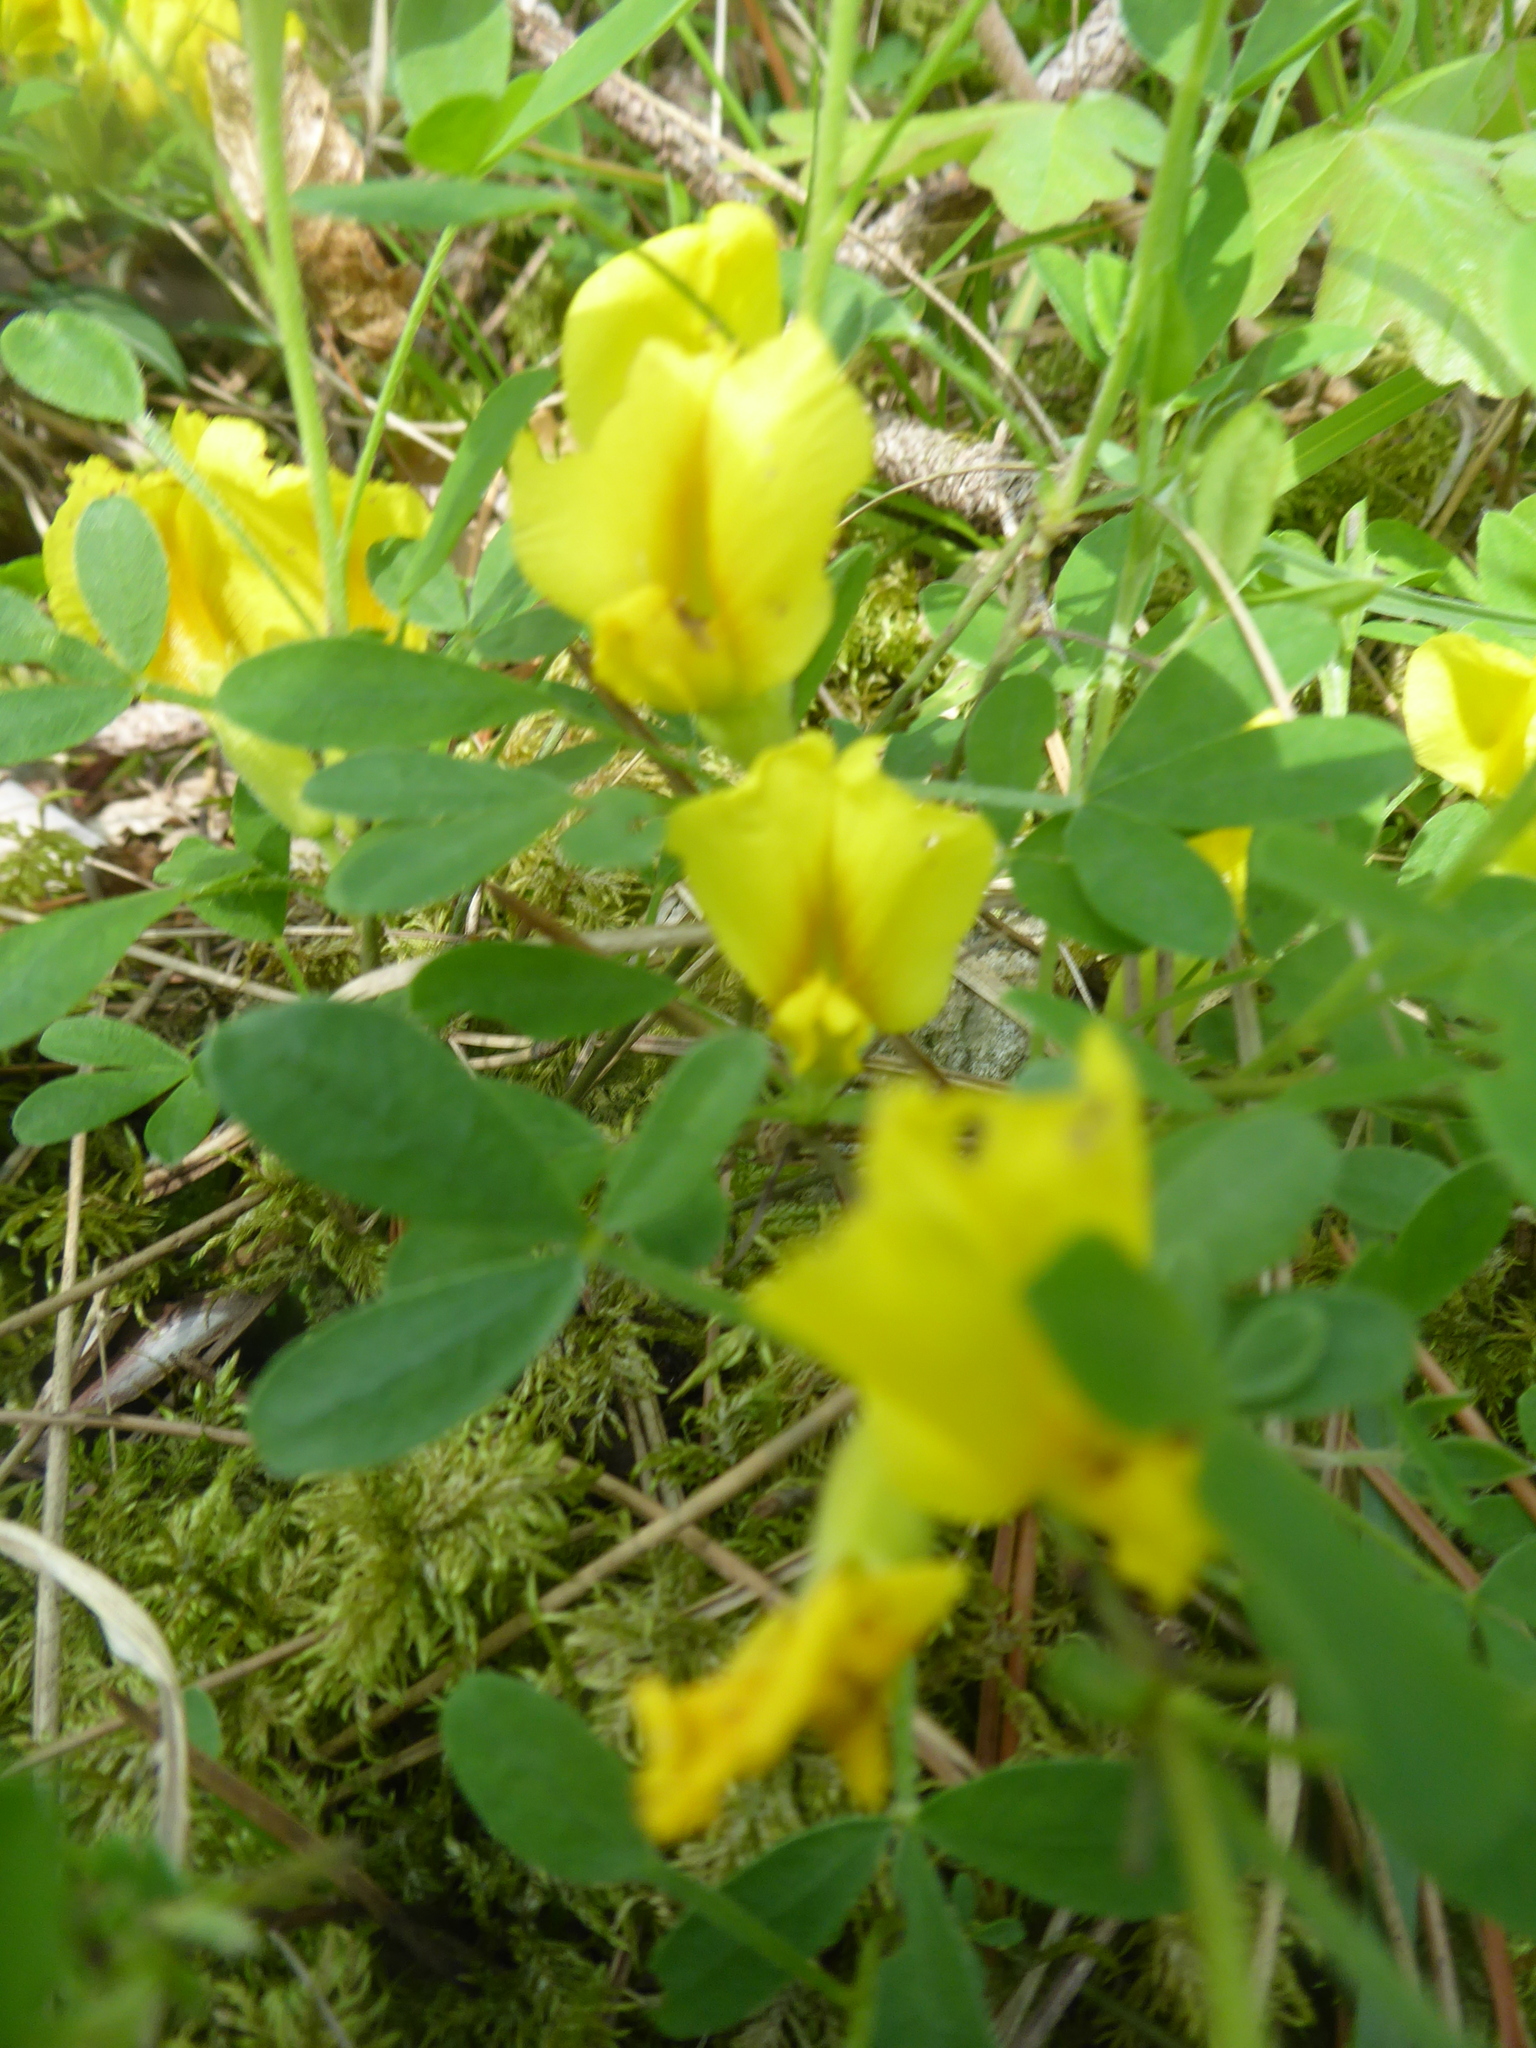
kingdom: Plantae
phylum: Tracheophyta
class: Magnoliopsida
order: Fabales
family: Fabaceae
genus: Chamaecytisus
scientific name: Chamaecytisus ratisbonensis
